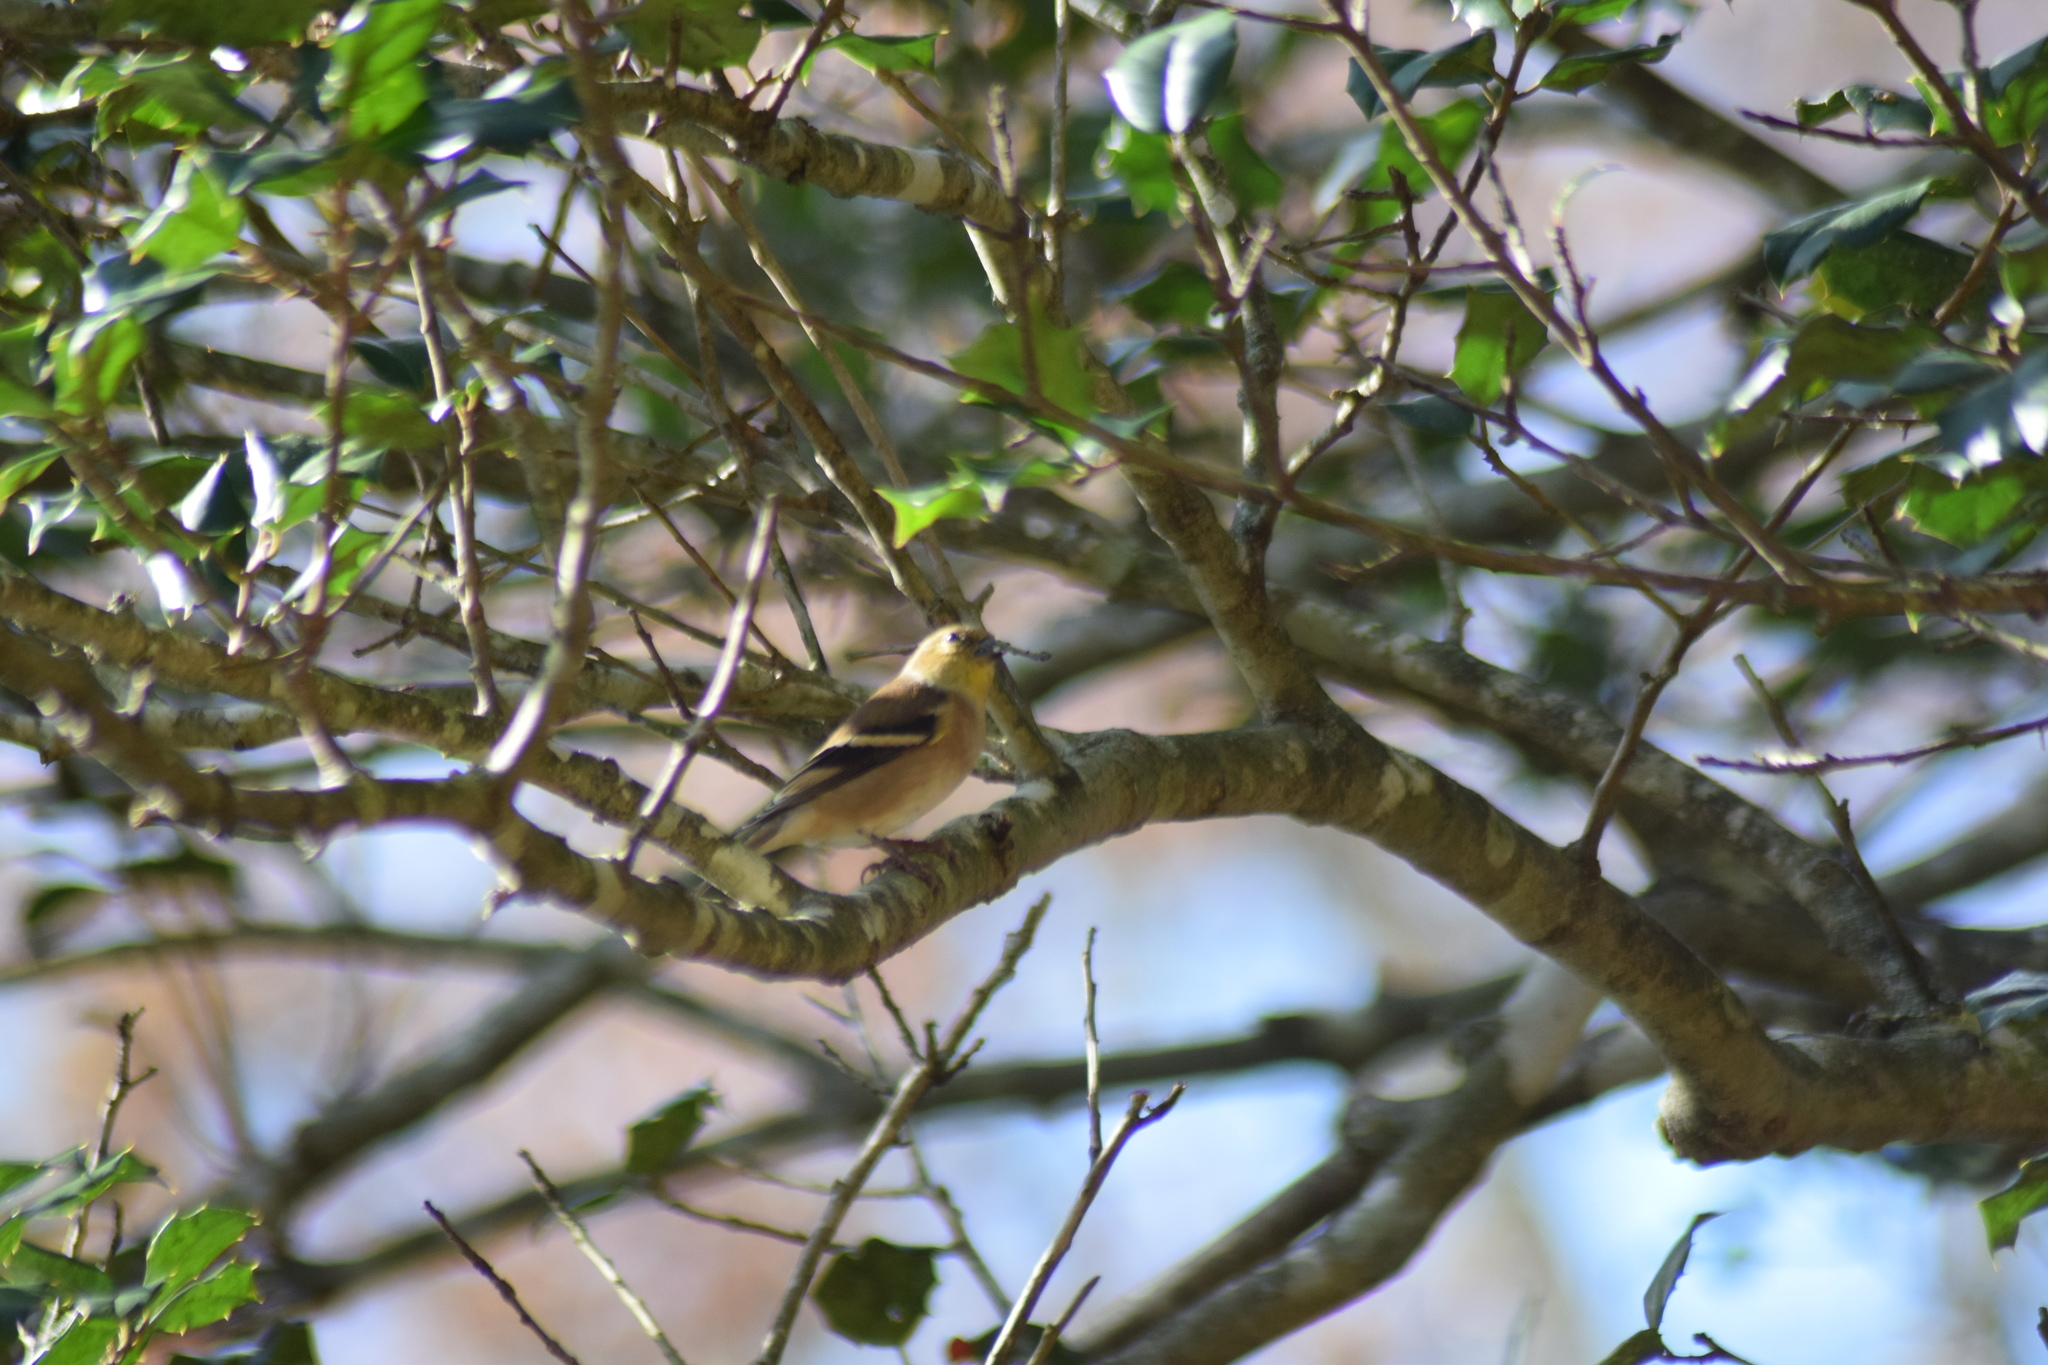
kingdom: Animalia
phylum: Chordata
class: Aves
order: Passeriformes
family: Fringillidae
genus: Spinus
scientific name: Spinus tristis
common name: American goldfinch
